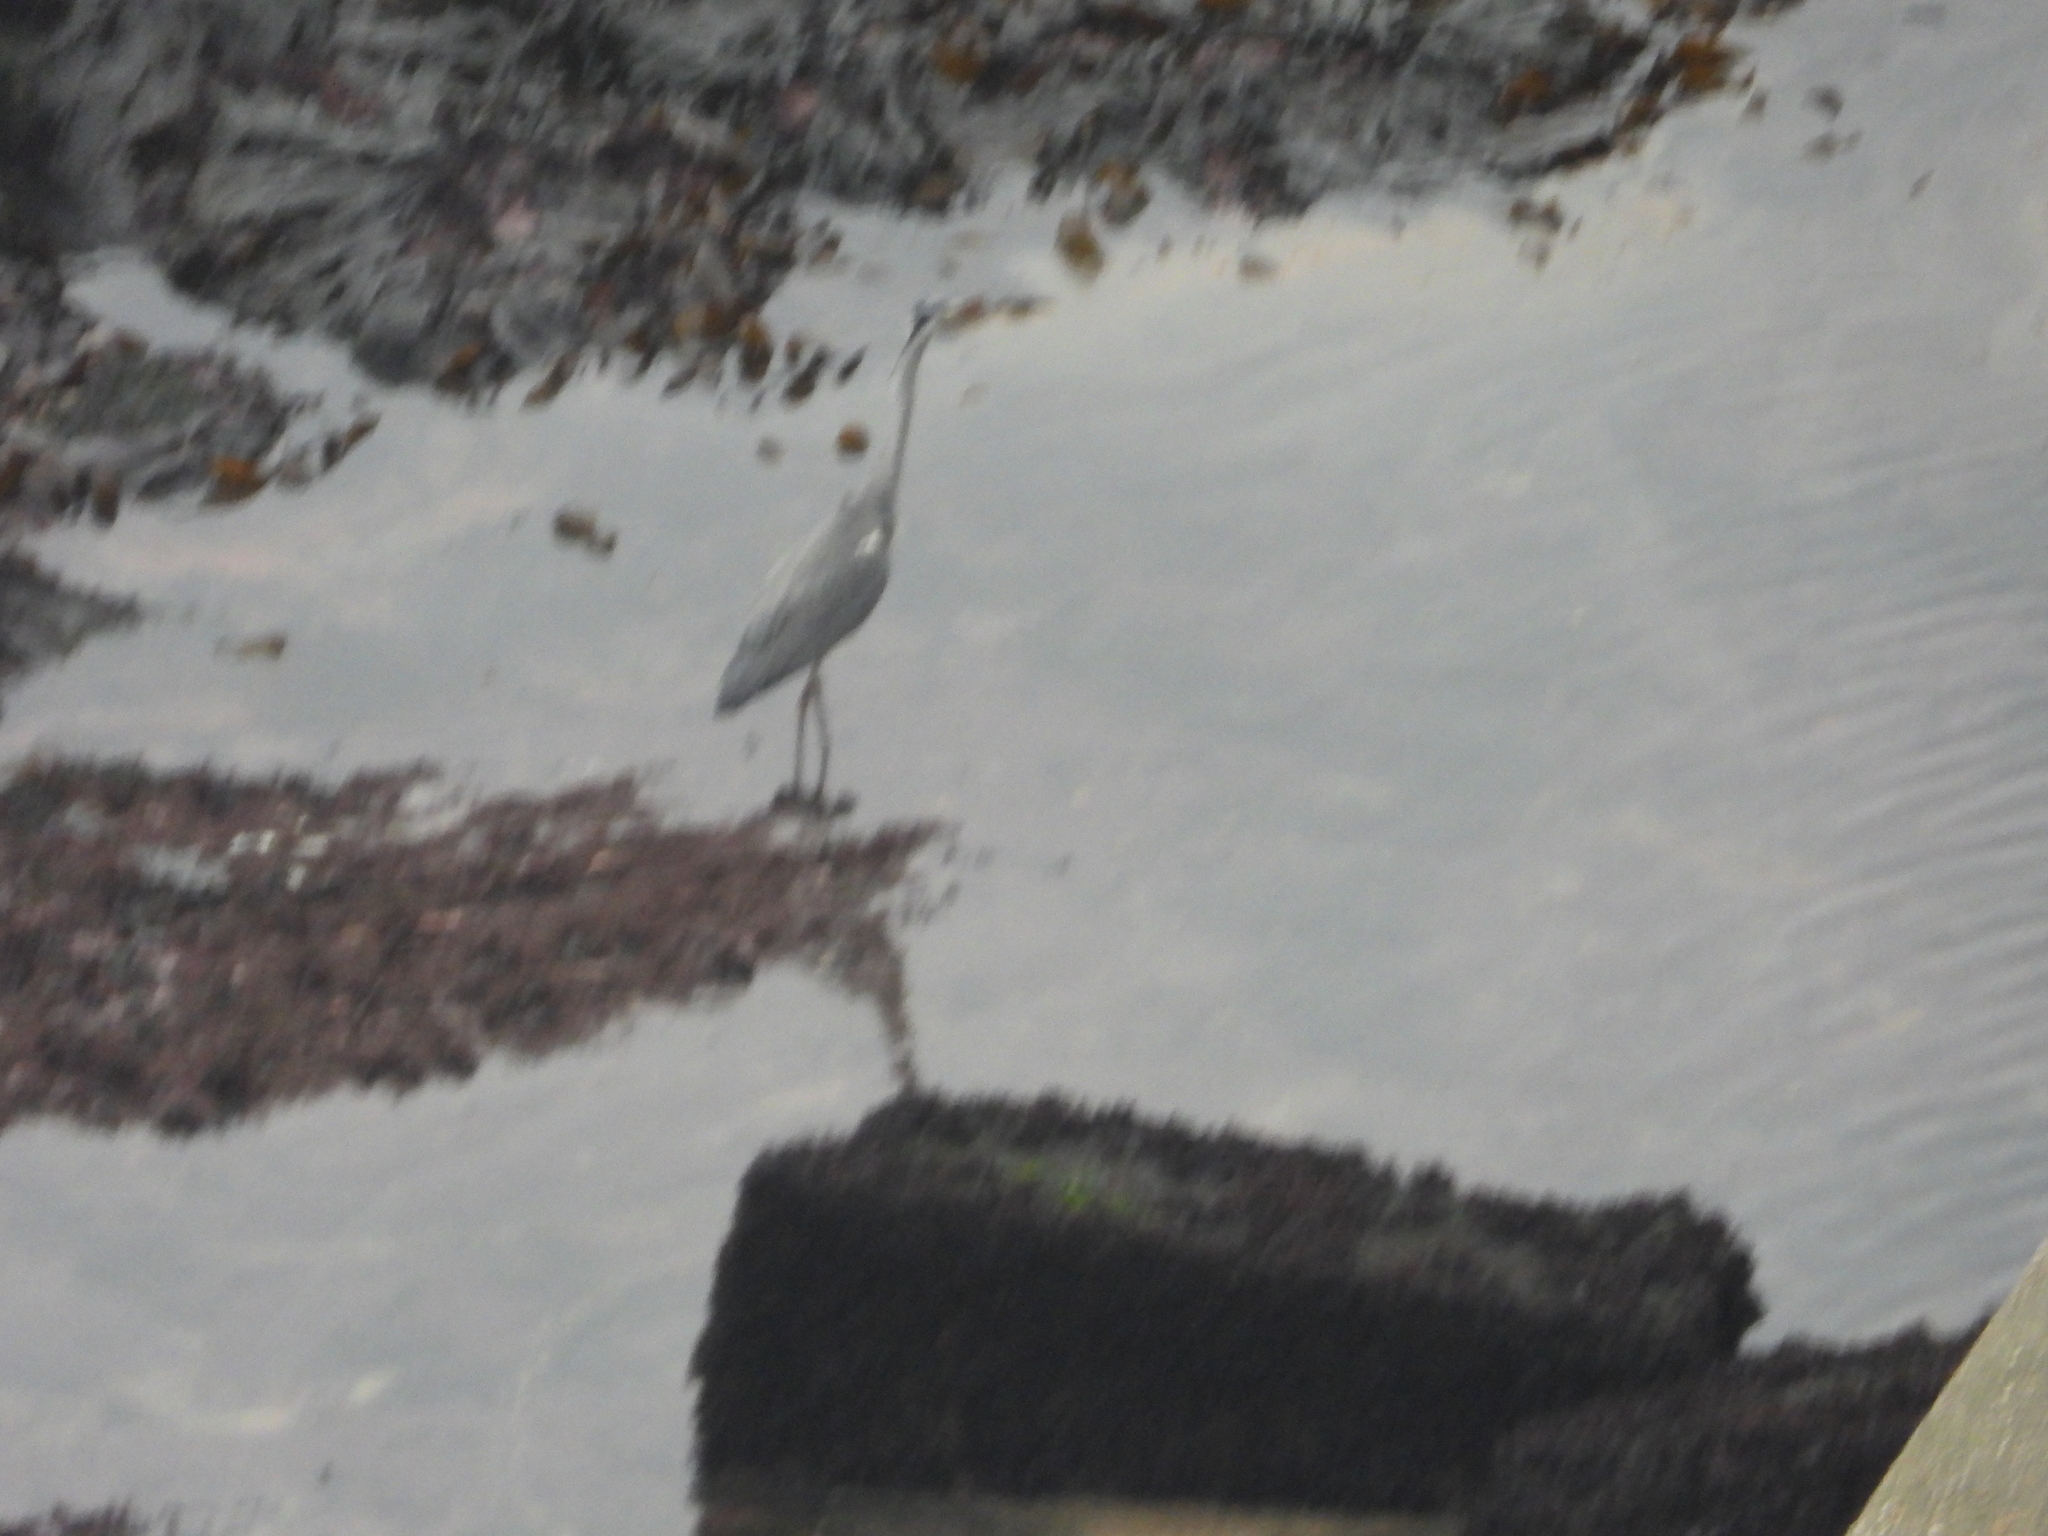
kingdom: Animalia
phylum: Chordata
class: Aves
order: Pelecaniformes
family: Ardeidae
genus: Ardea
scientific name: Ardea cinerea
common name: Grey heron
